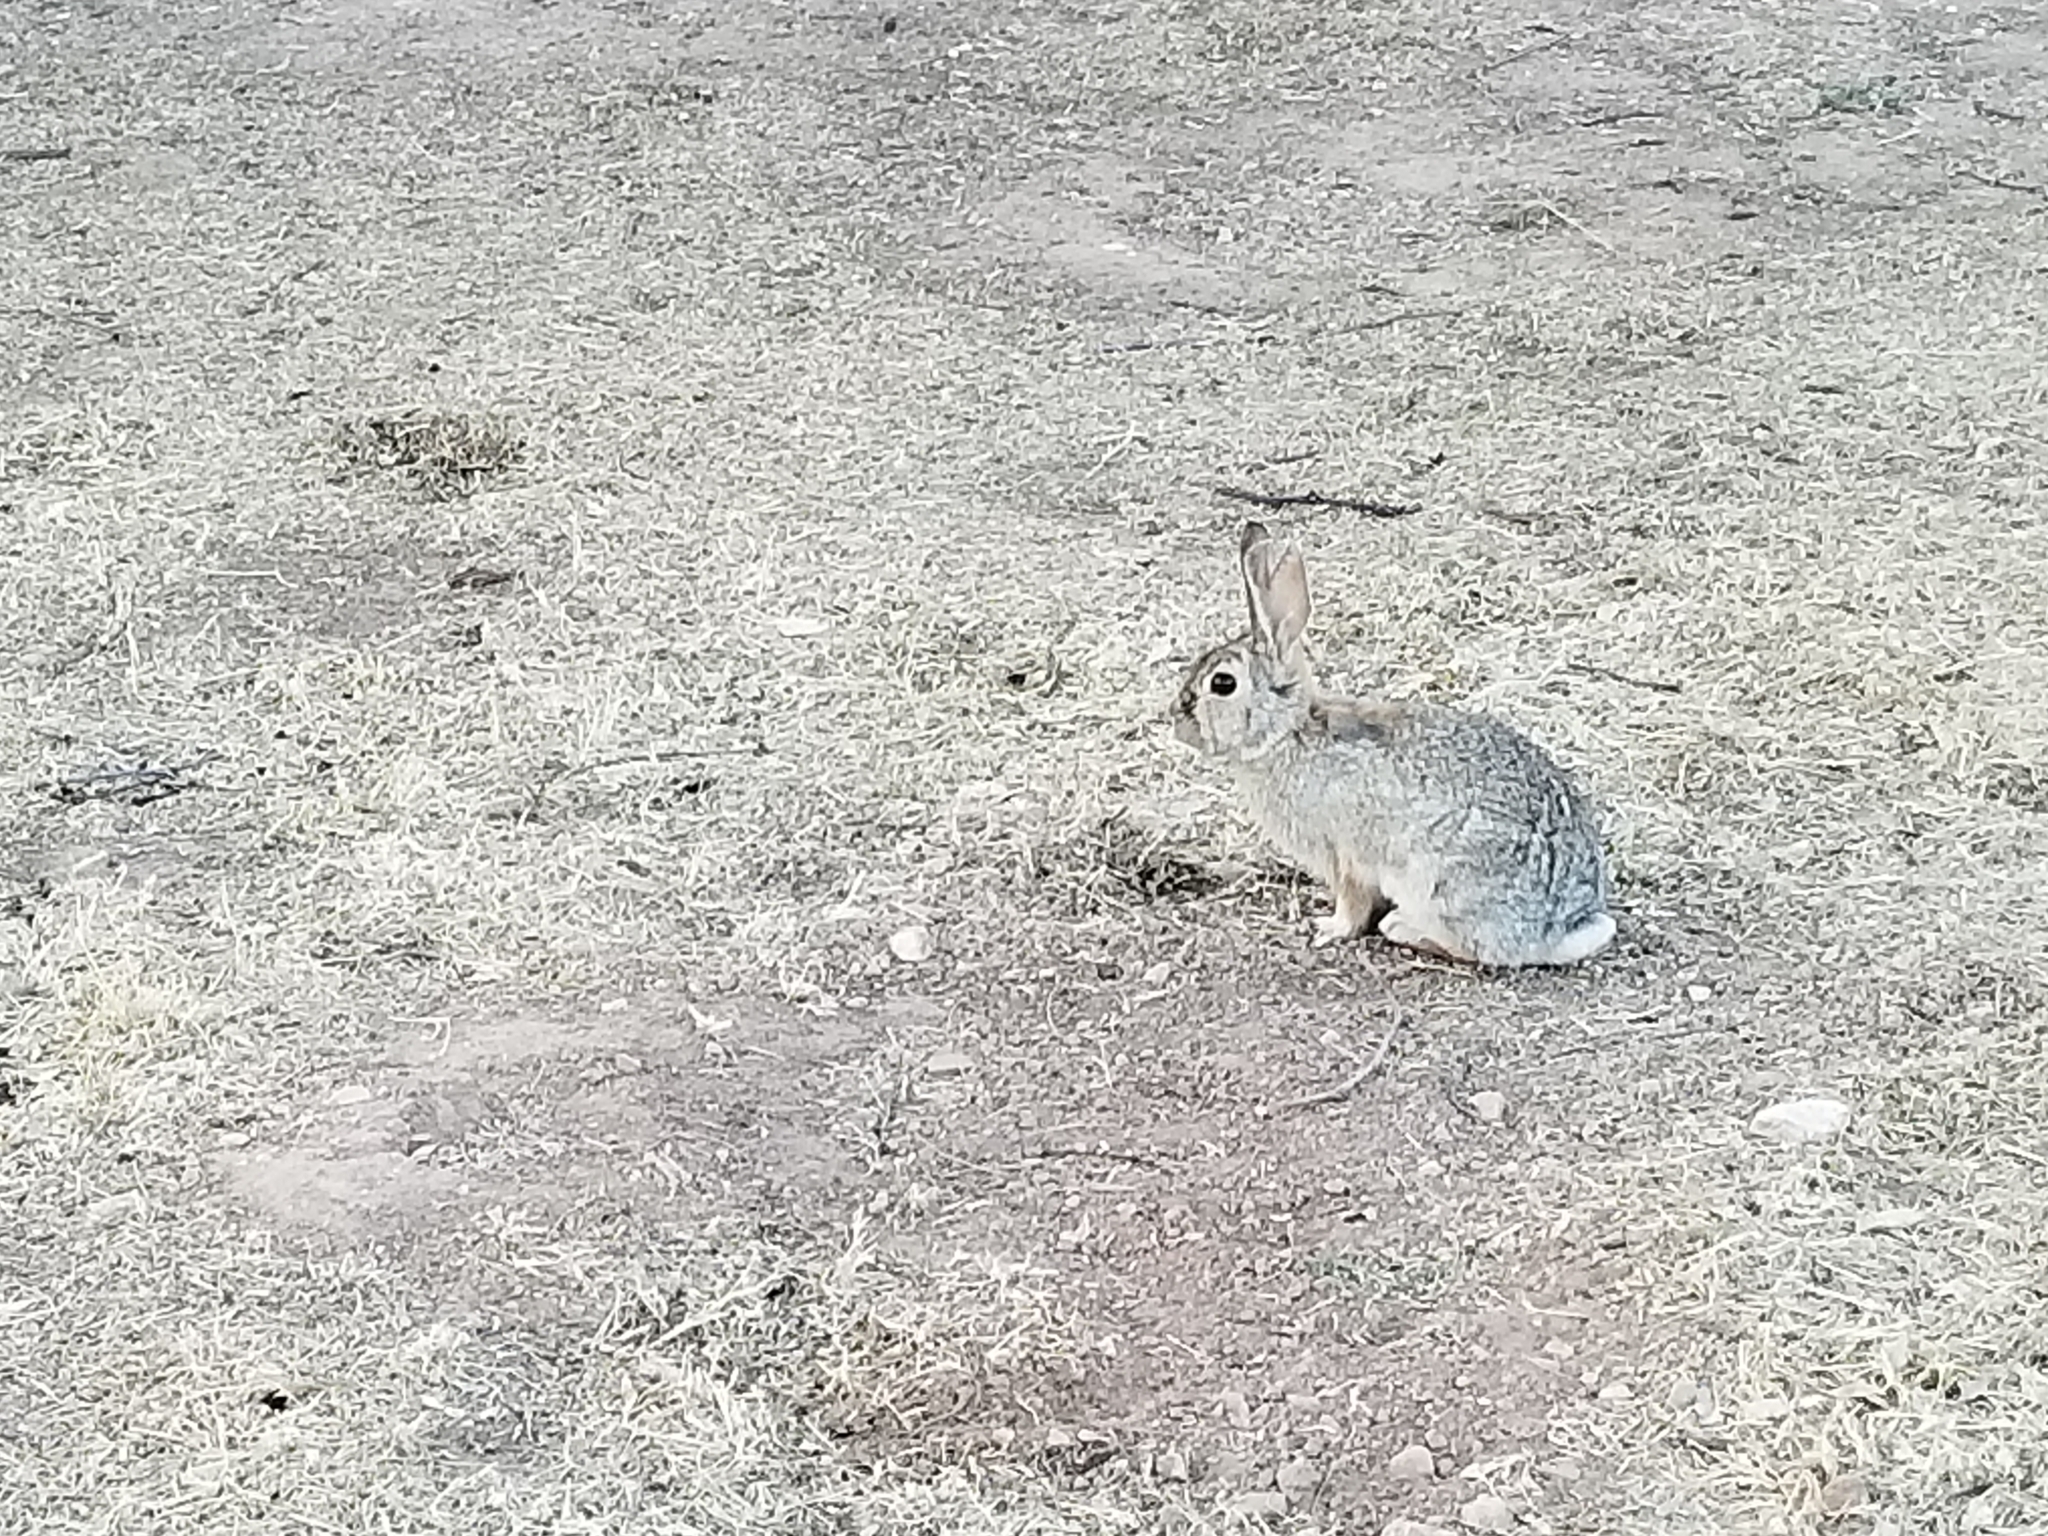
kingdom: Animalia
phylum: Chordata
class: Mammalia
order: Lagomorpha
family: Leporidae
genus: Sylvilagus
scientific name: Sylvilagus audubonii
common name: Desert cottontail
